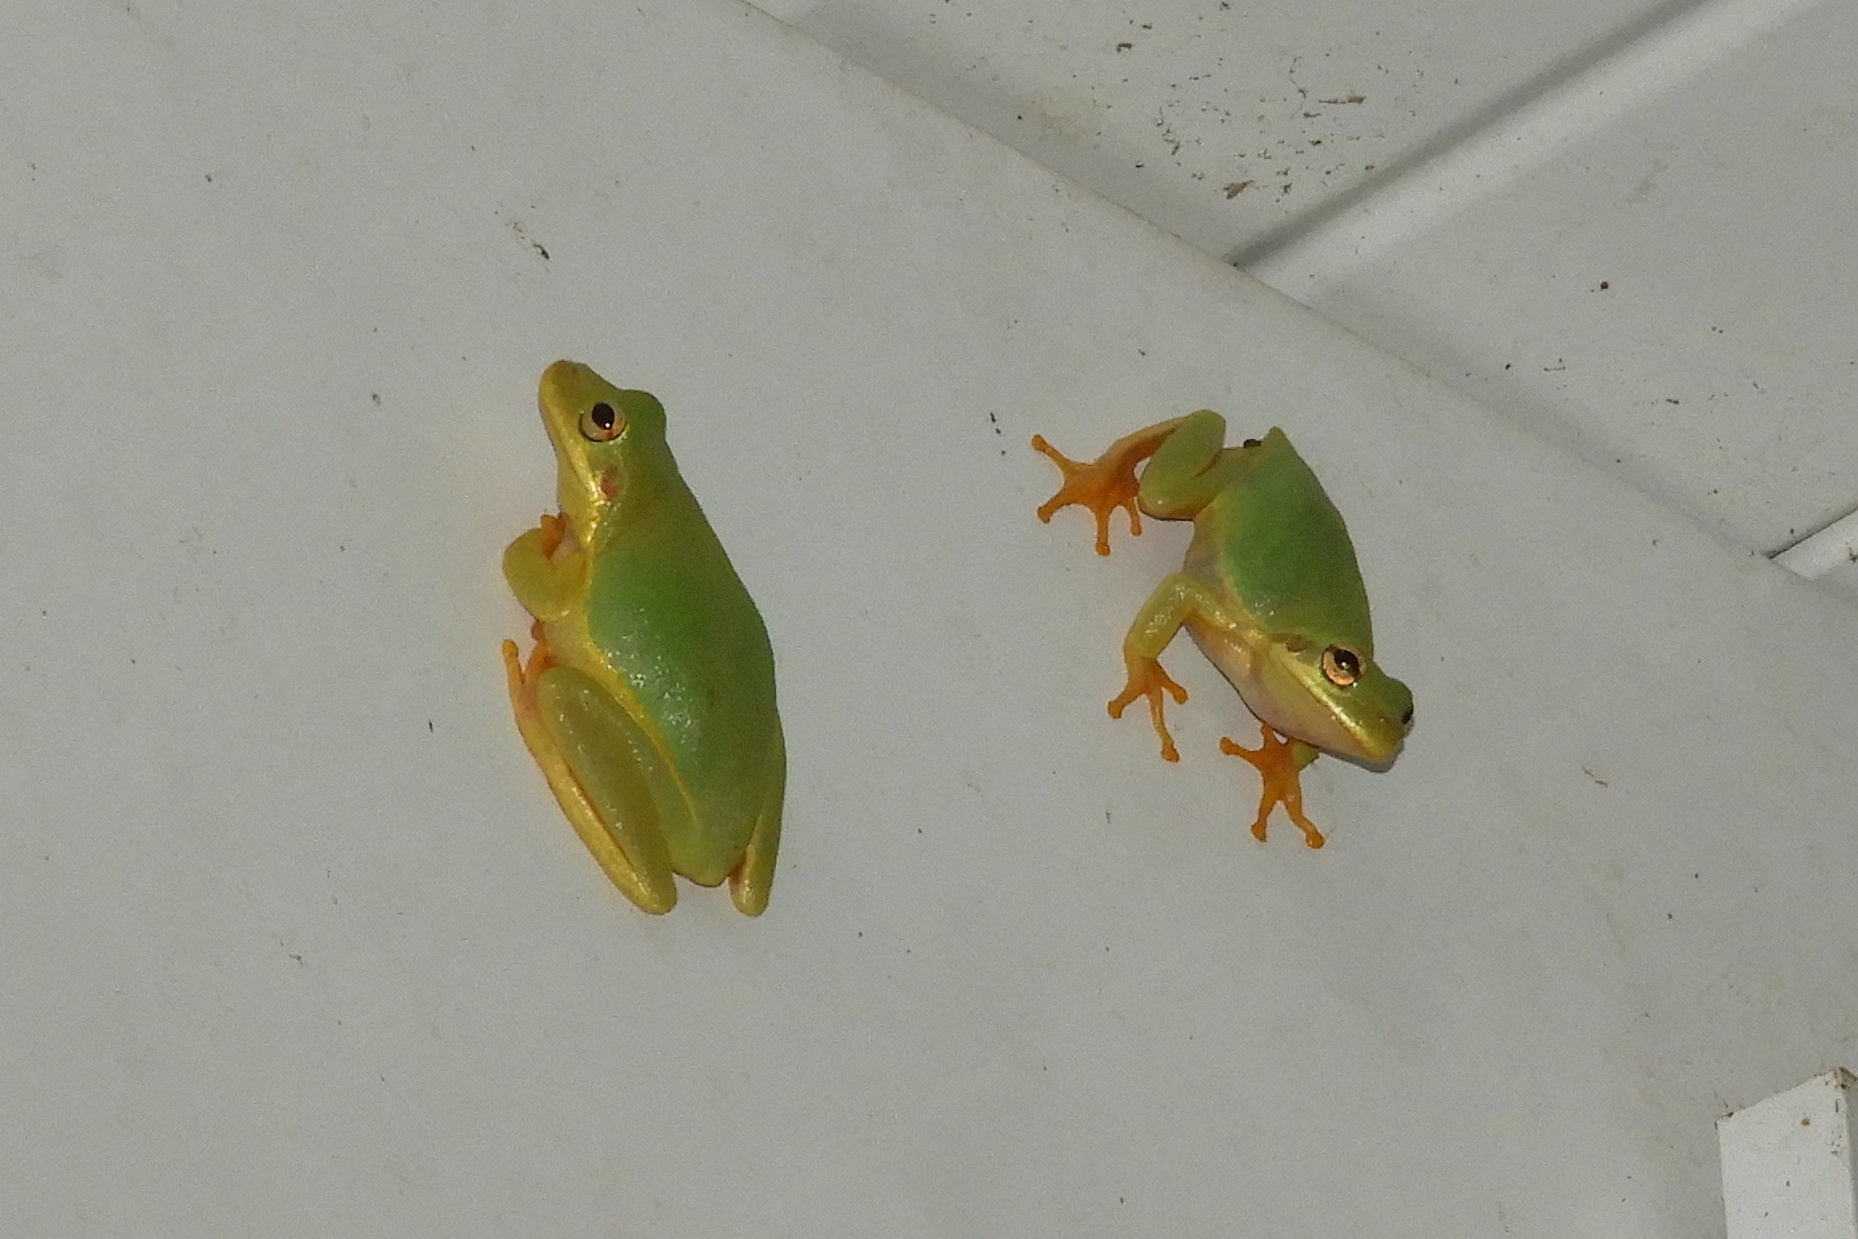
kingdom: Animalia
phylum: Chordata
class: Amphibia
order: Anura
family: Hylidae
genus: Dryophytes
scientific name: Dryophytes squirellus
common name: Squirrel treefrog
